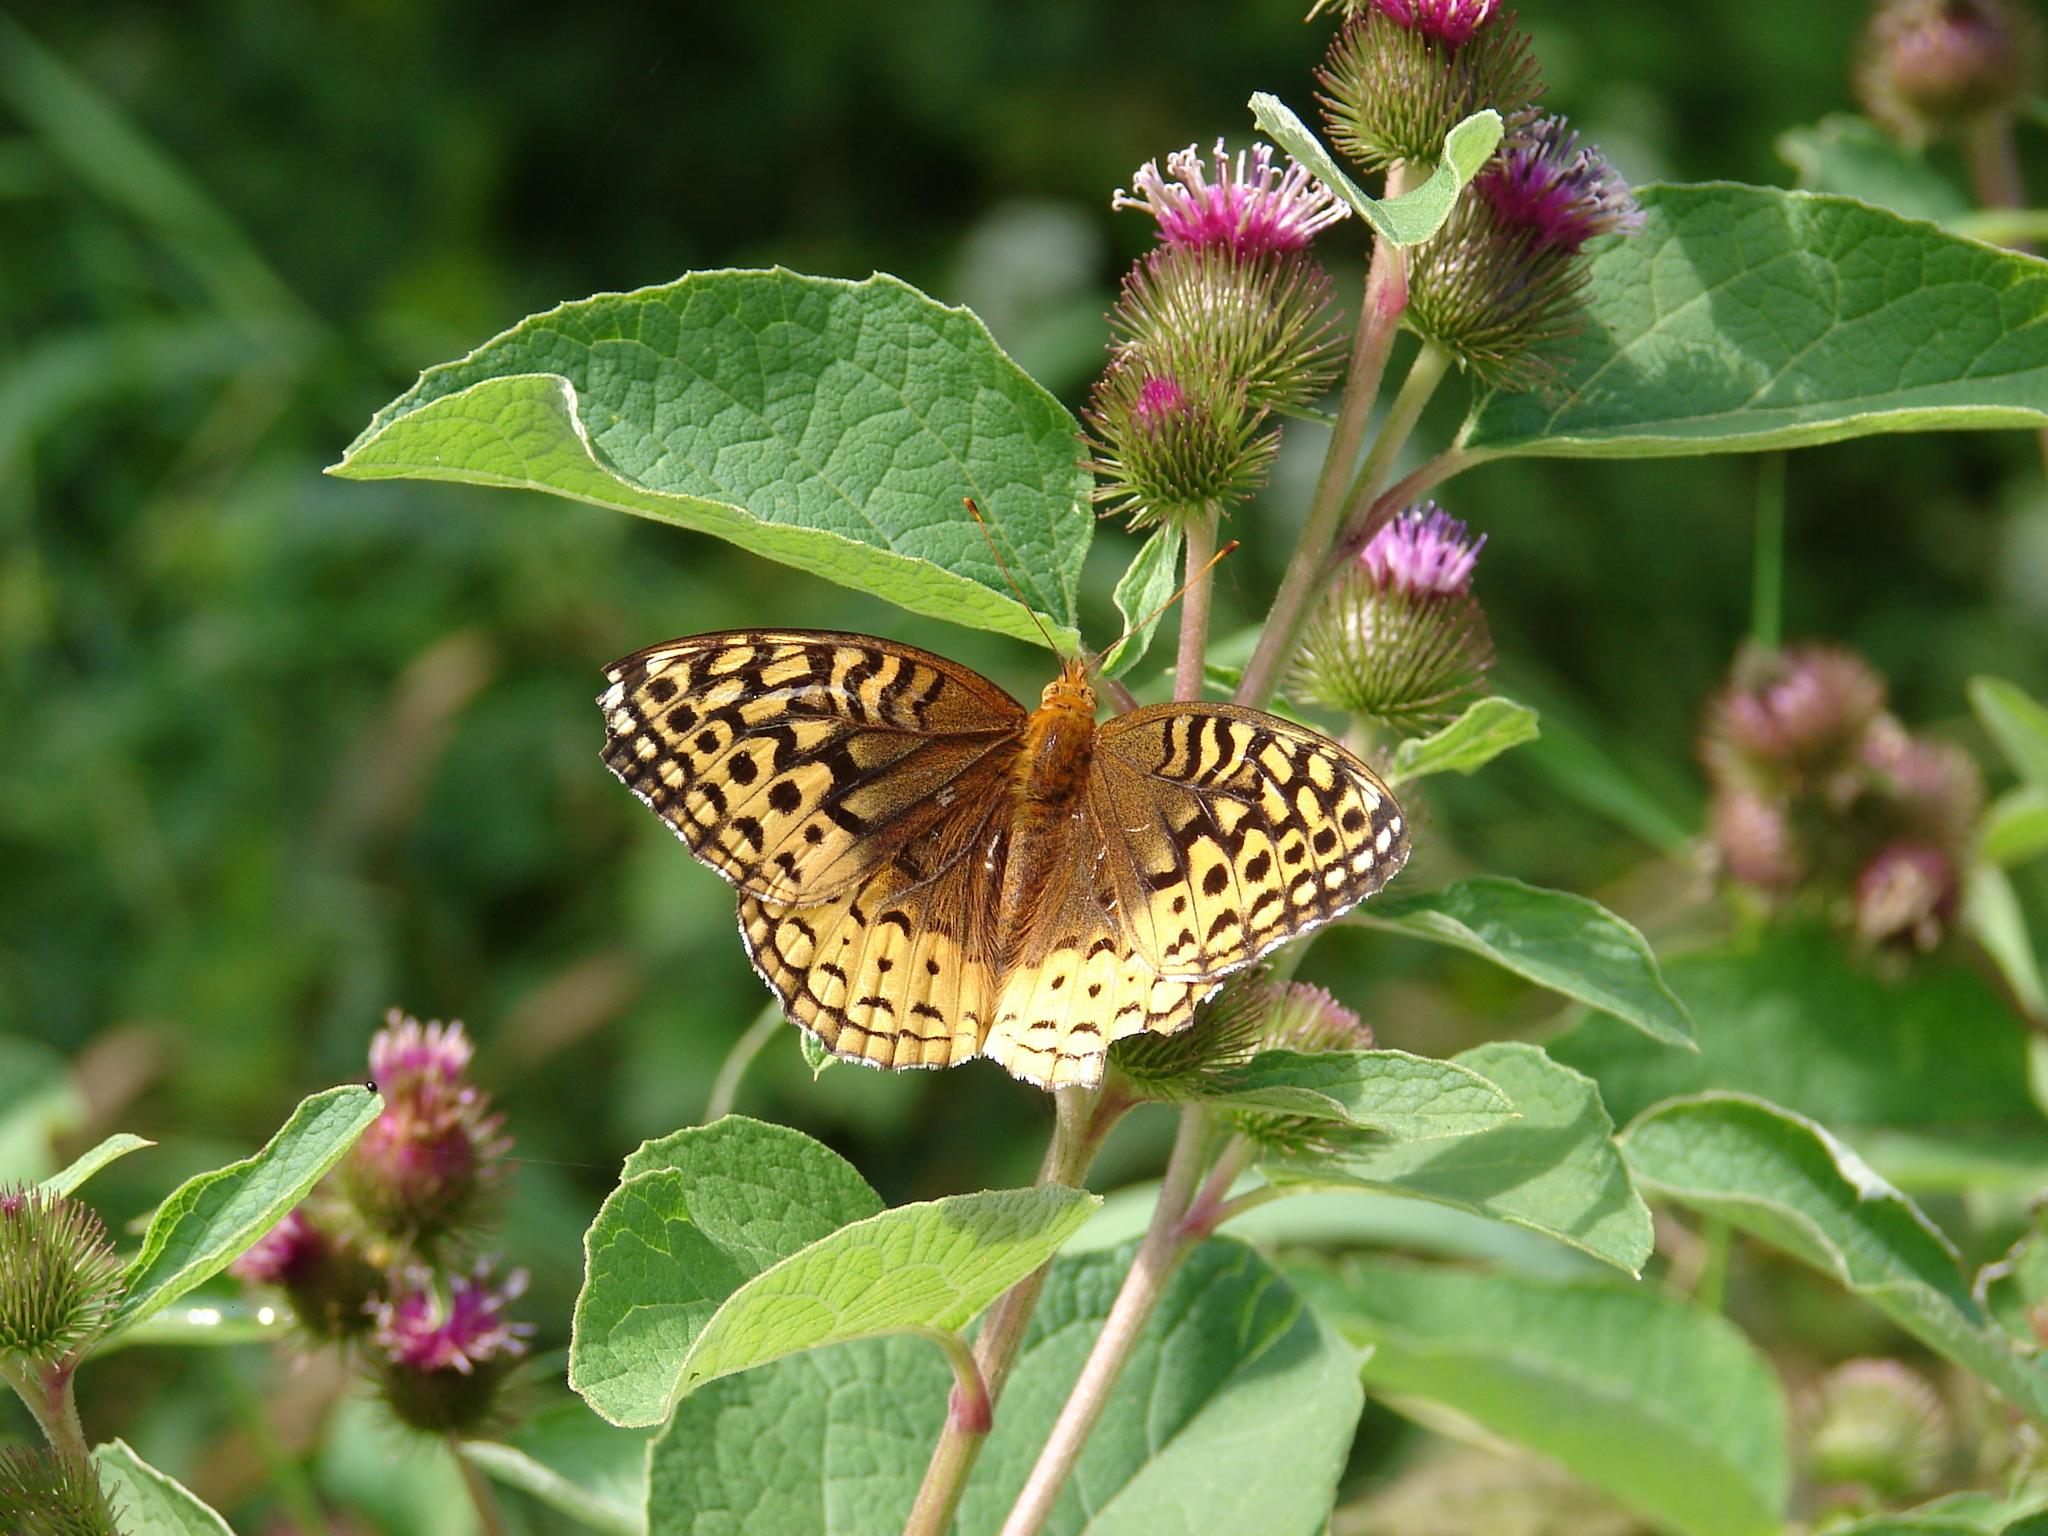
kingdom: Animalia
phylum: Arthropoda
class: Insecta
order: Lepidoptera
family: Nymphalidae
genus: Speyeria
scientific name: Speyeria cybele
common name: Great spangled fritillary
